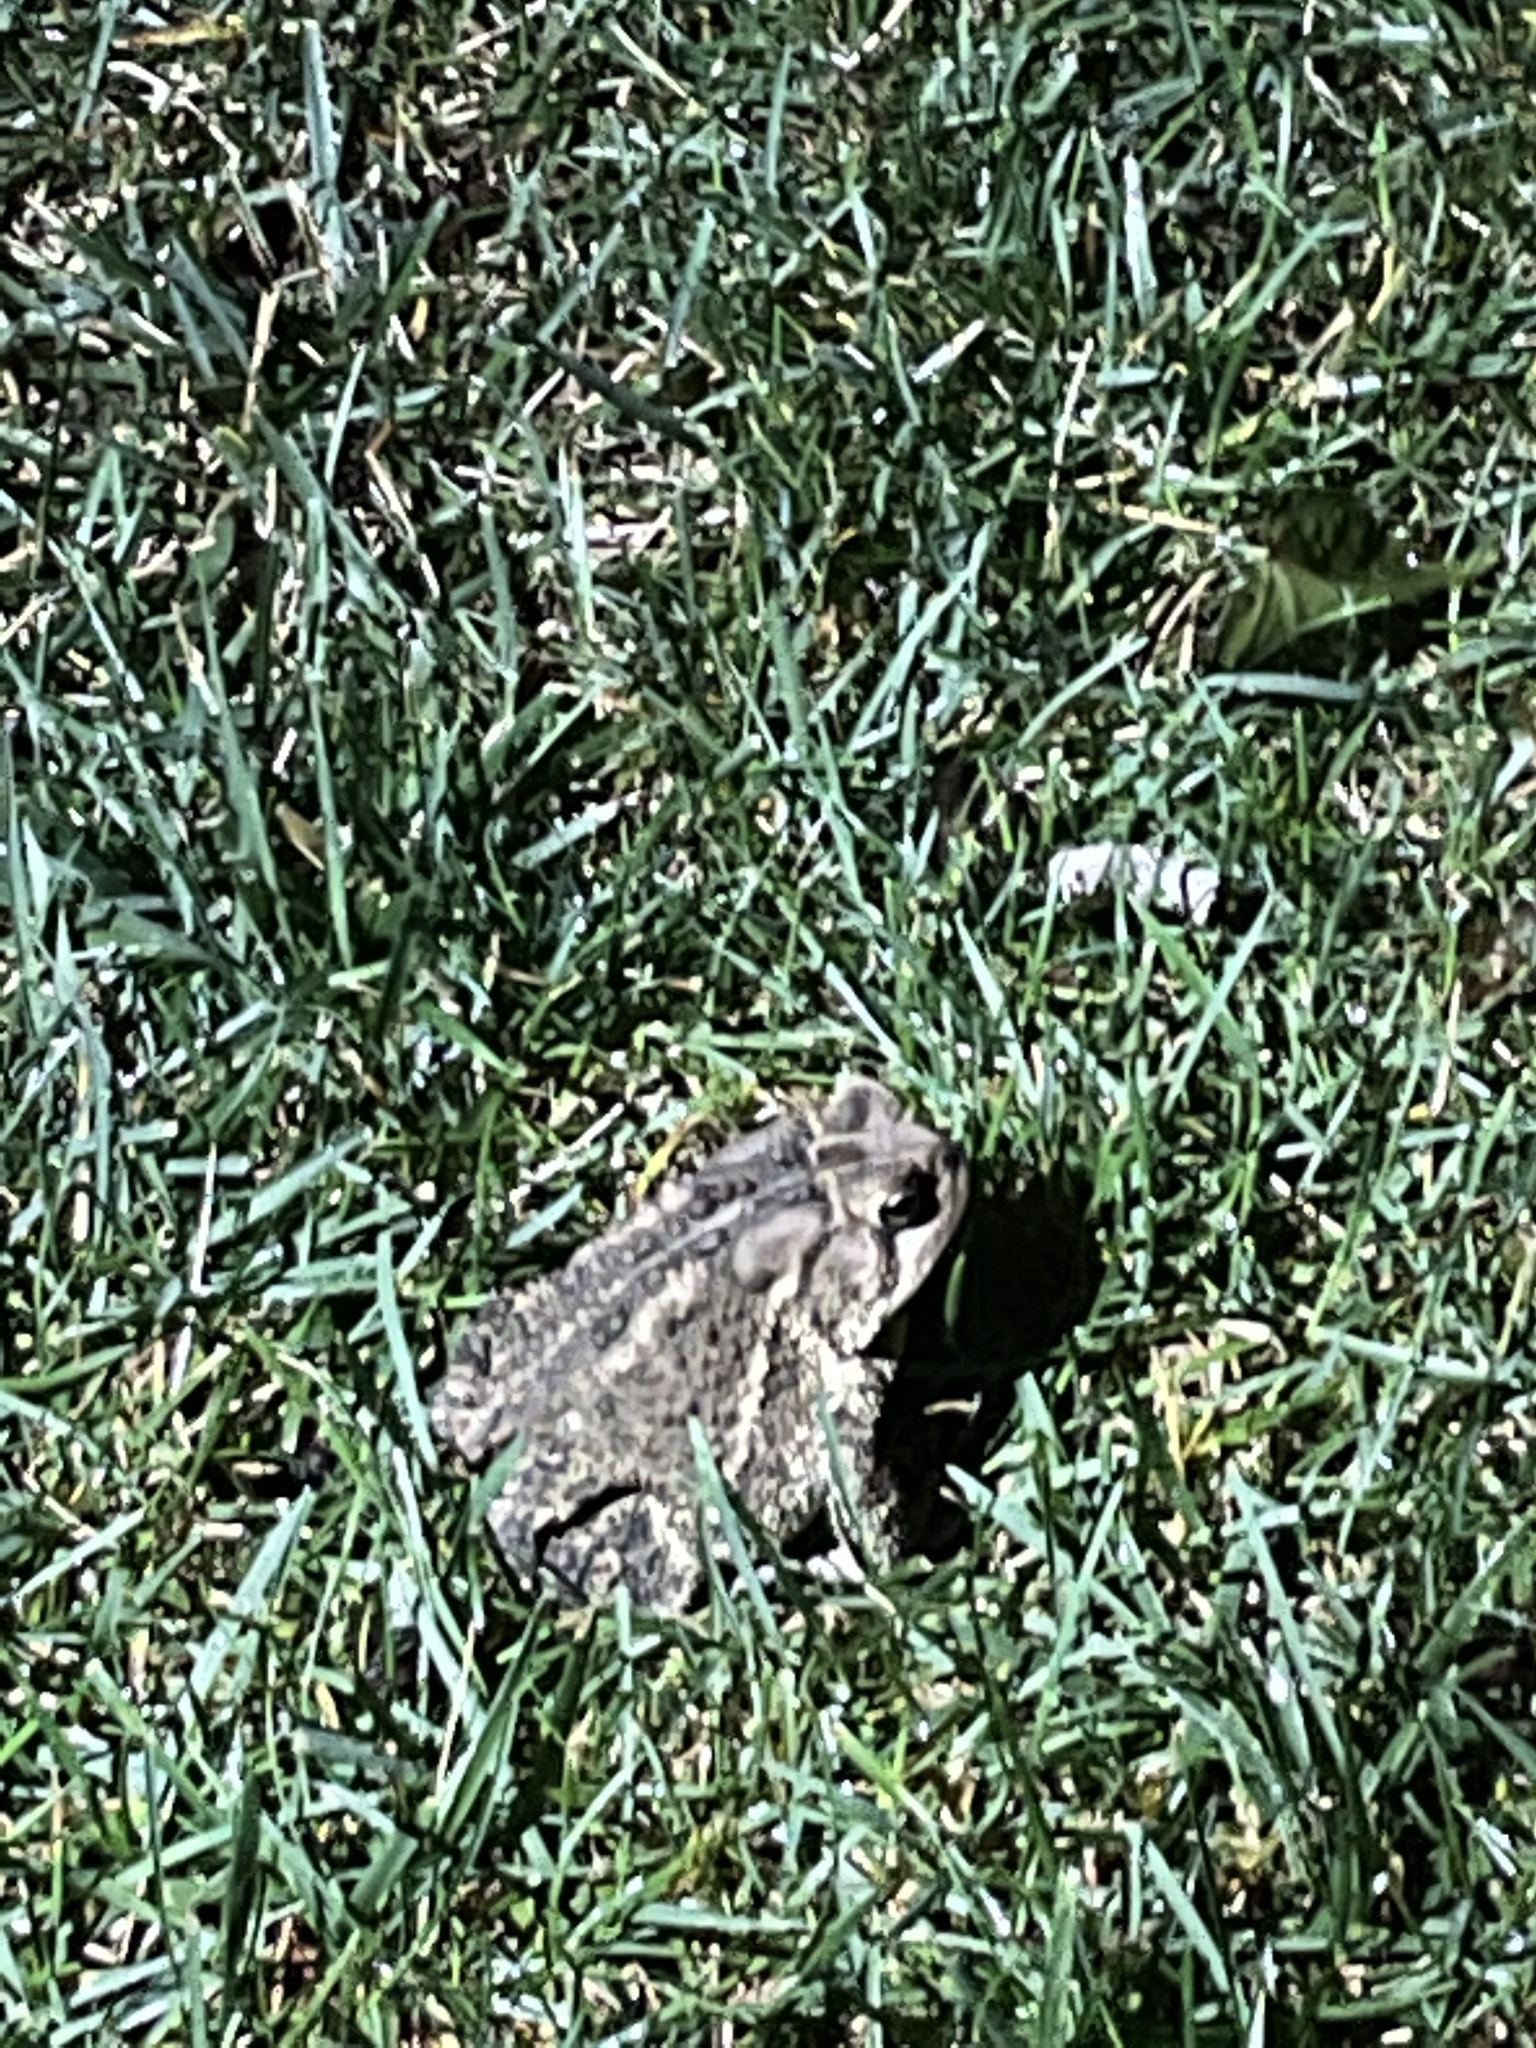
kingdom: Animalia
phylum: Chordata
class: Amphibia
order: Anura
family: Bufonidae
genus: Anaxyrus
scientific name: Anaxyrus americanus
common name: American toad
